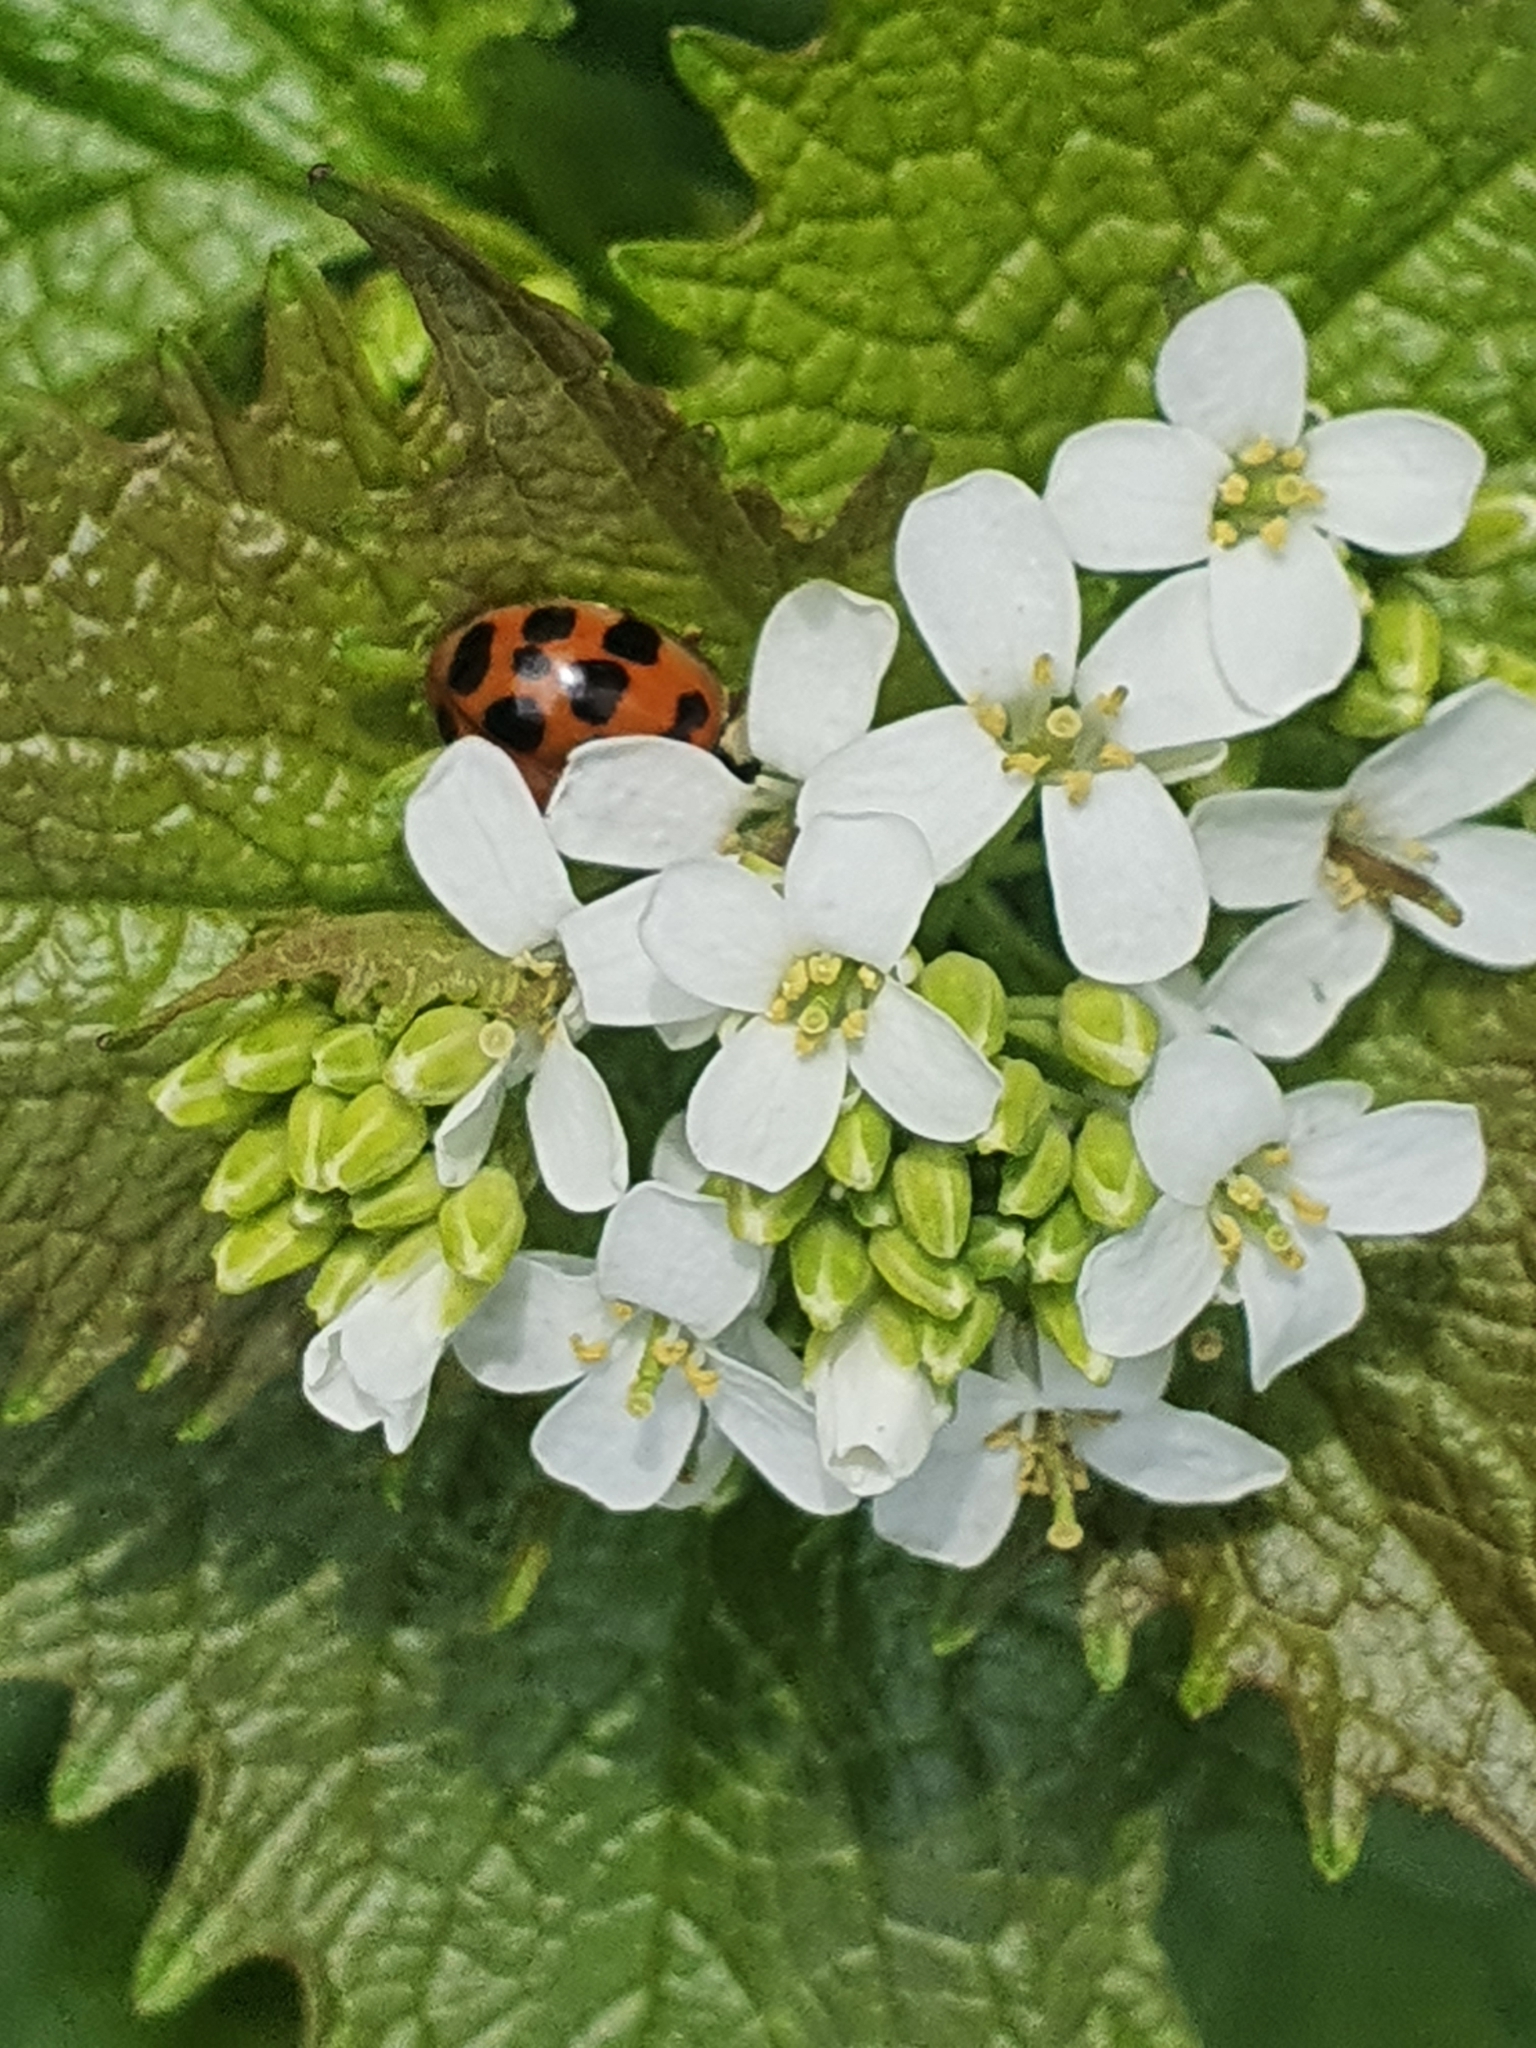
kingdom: Animalia
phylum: Arthropoda
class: Insecta
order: Coleoptera
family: Coccinellidae
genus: Harmonia
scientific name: Harmonia axyridis
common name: Harlequin ladybird
